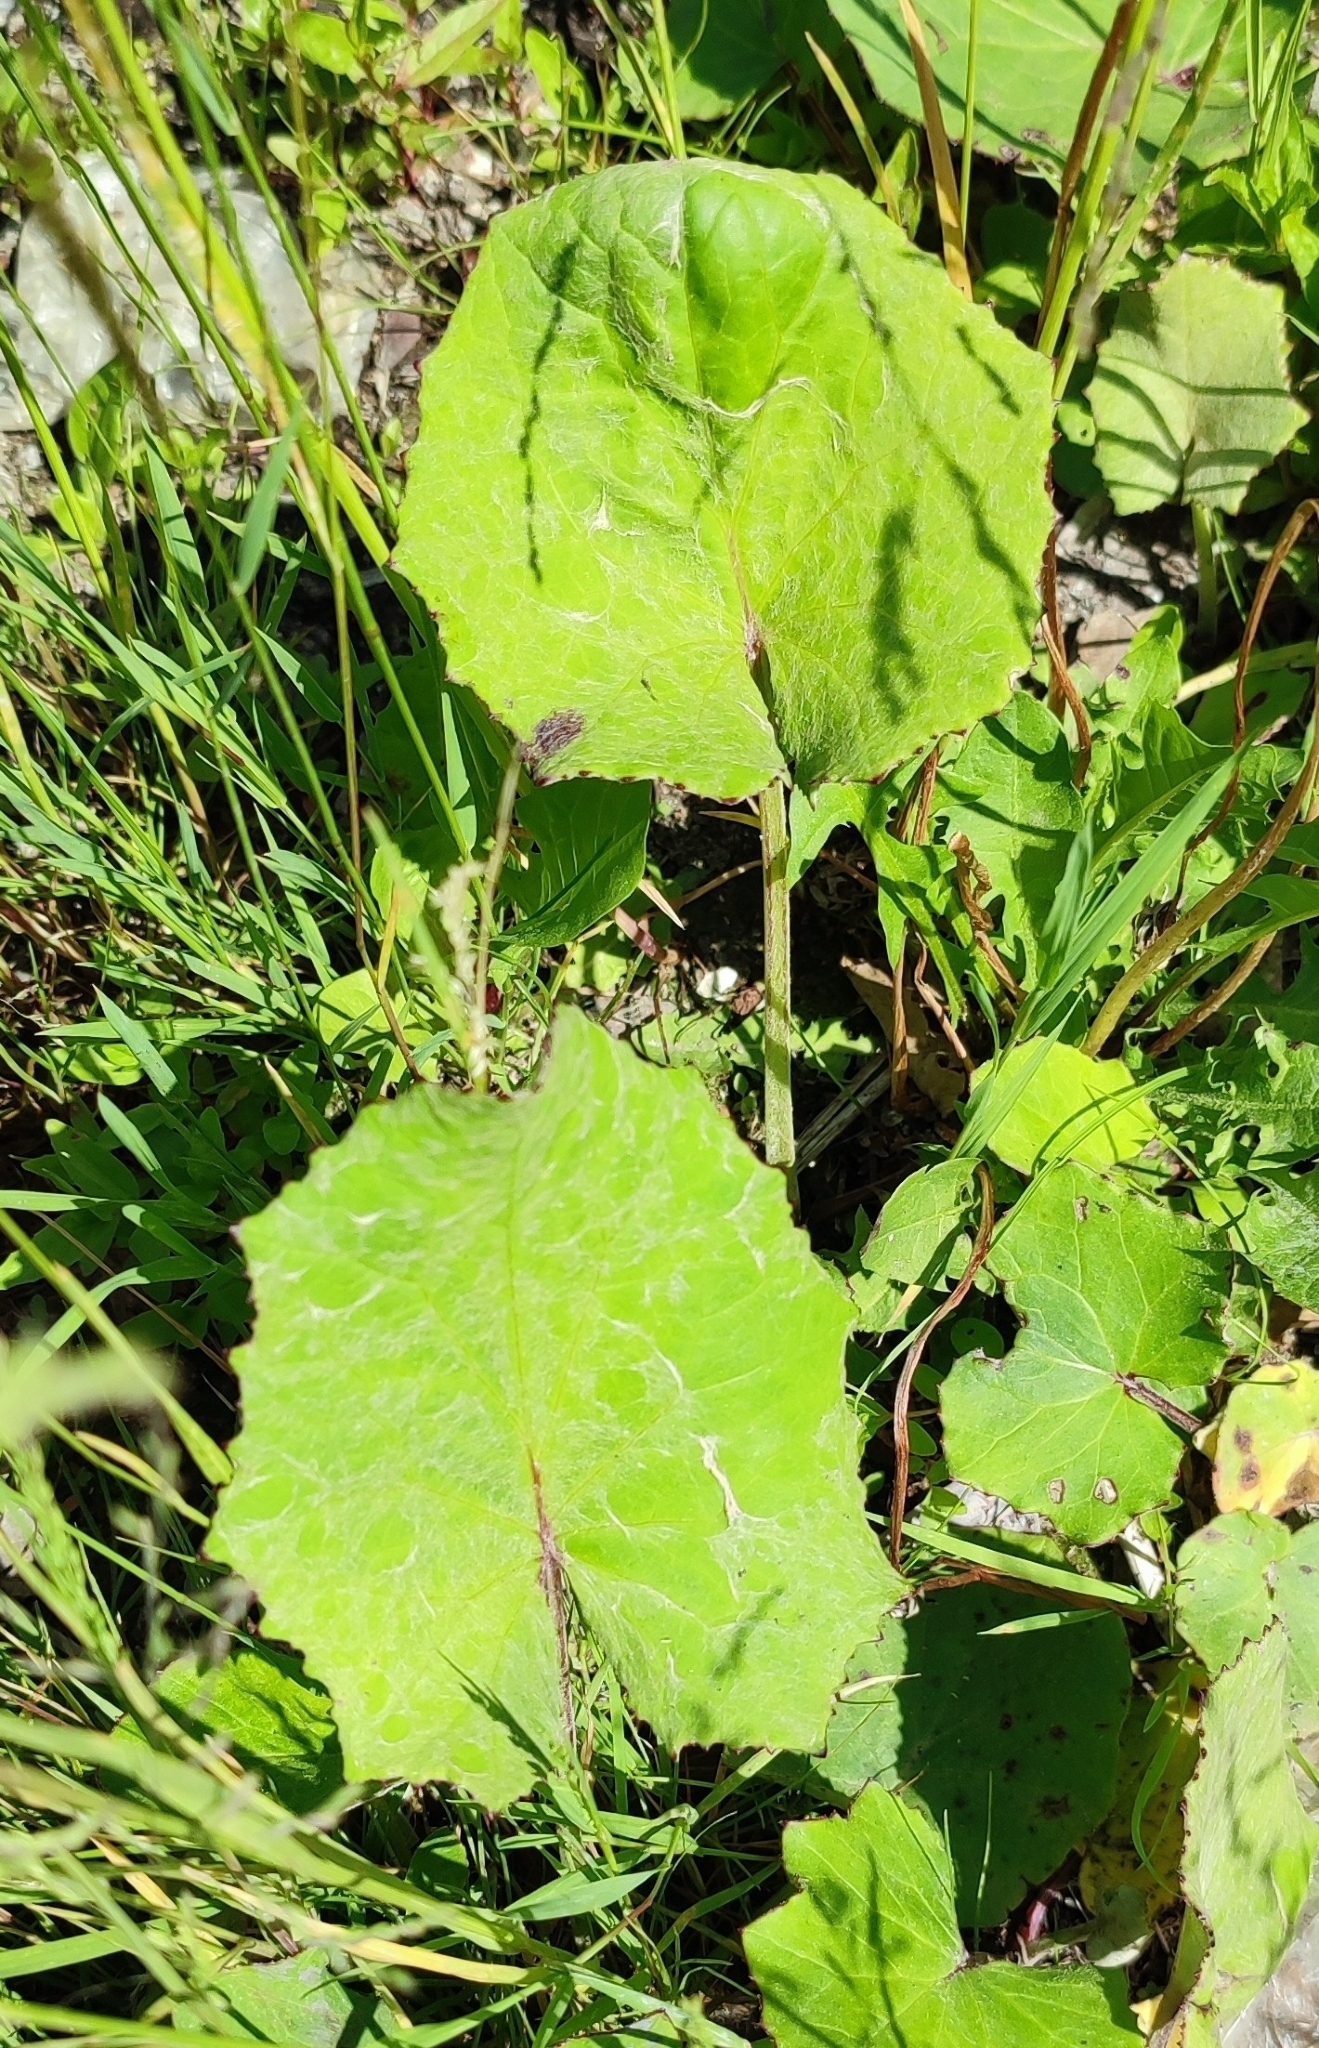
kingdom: Plantae
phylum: Tracheophyta
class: Magnoliopsida
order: Asterales
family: Asteraceae
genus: Tussilago
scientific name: Tussilago farfara
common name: Coltsfoot
